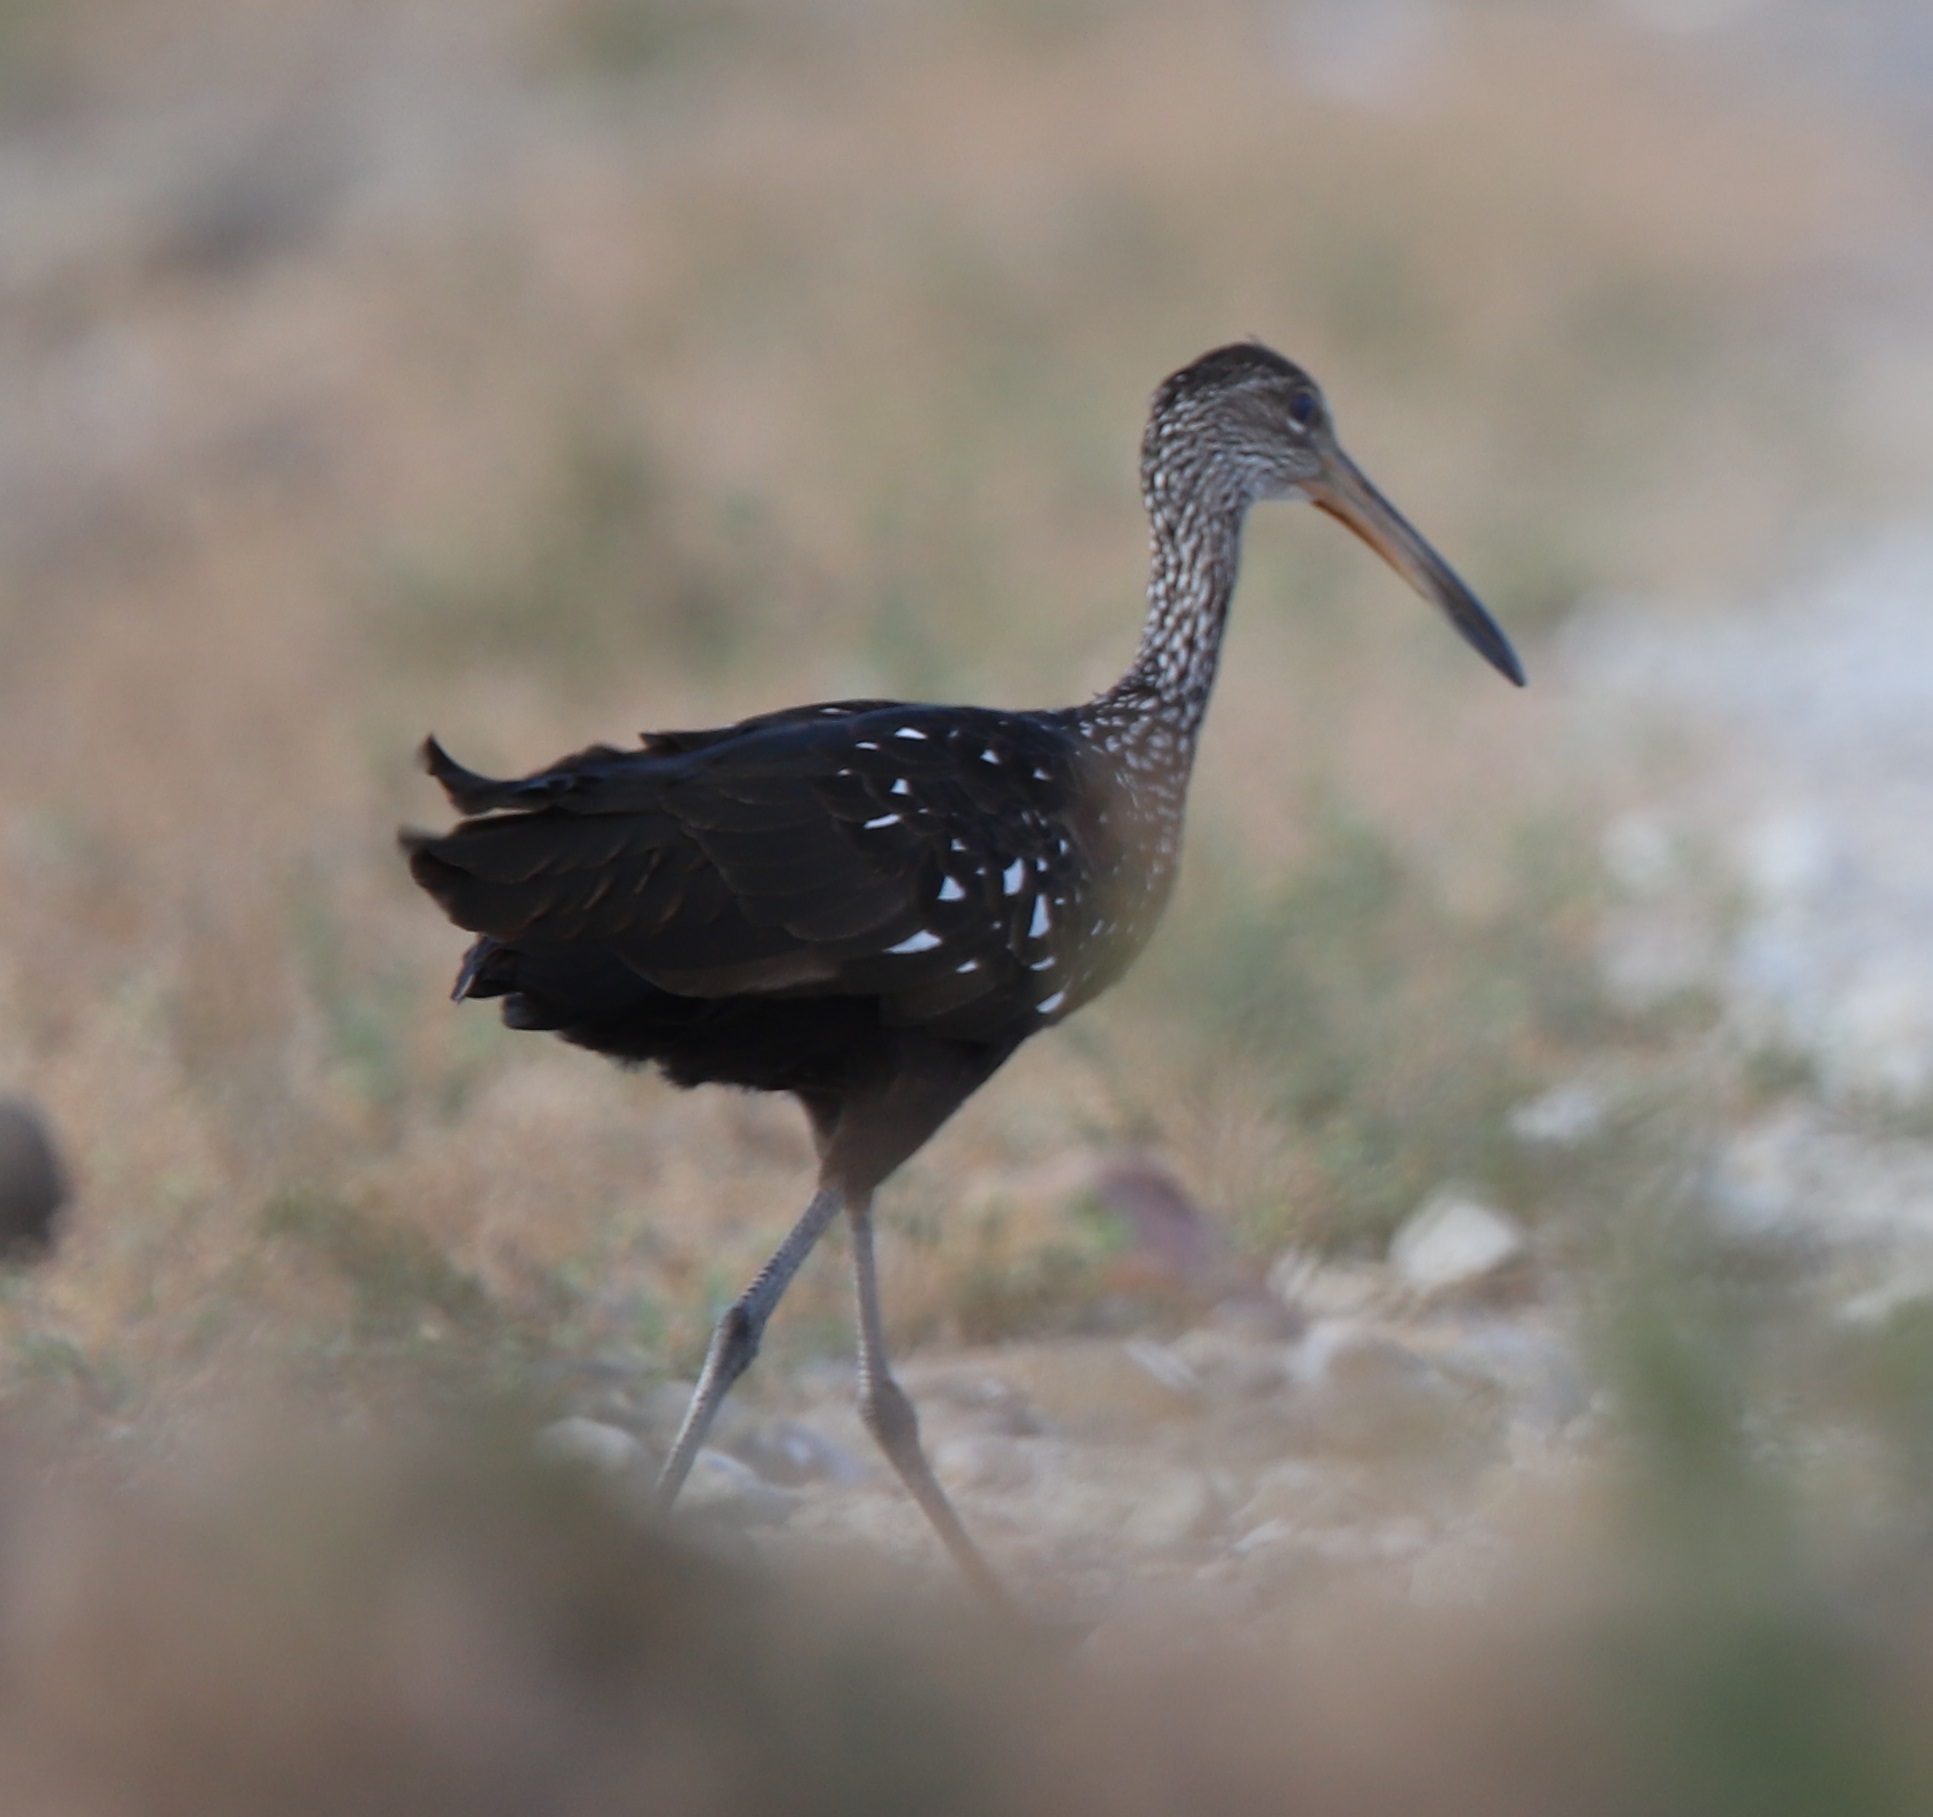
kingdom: Animalia
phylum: Chordata
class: Aves
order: Gruiformes
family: Aramidae
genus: Aramus
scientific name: Aramus guarauna
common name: Limpkin
